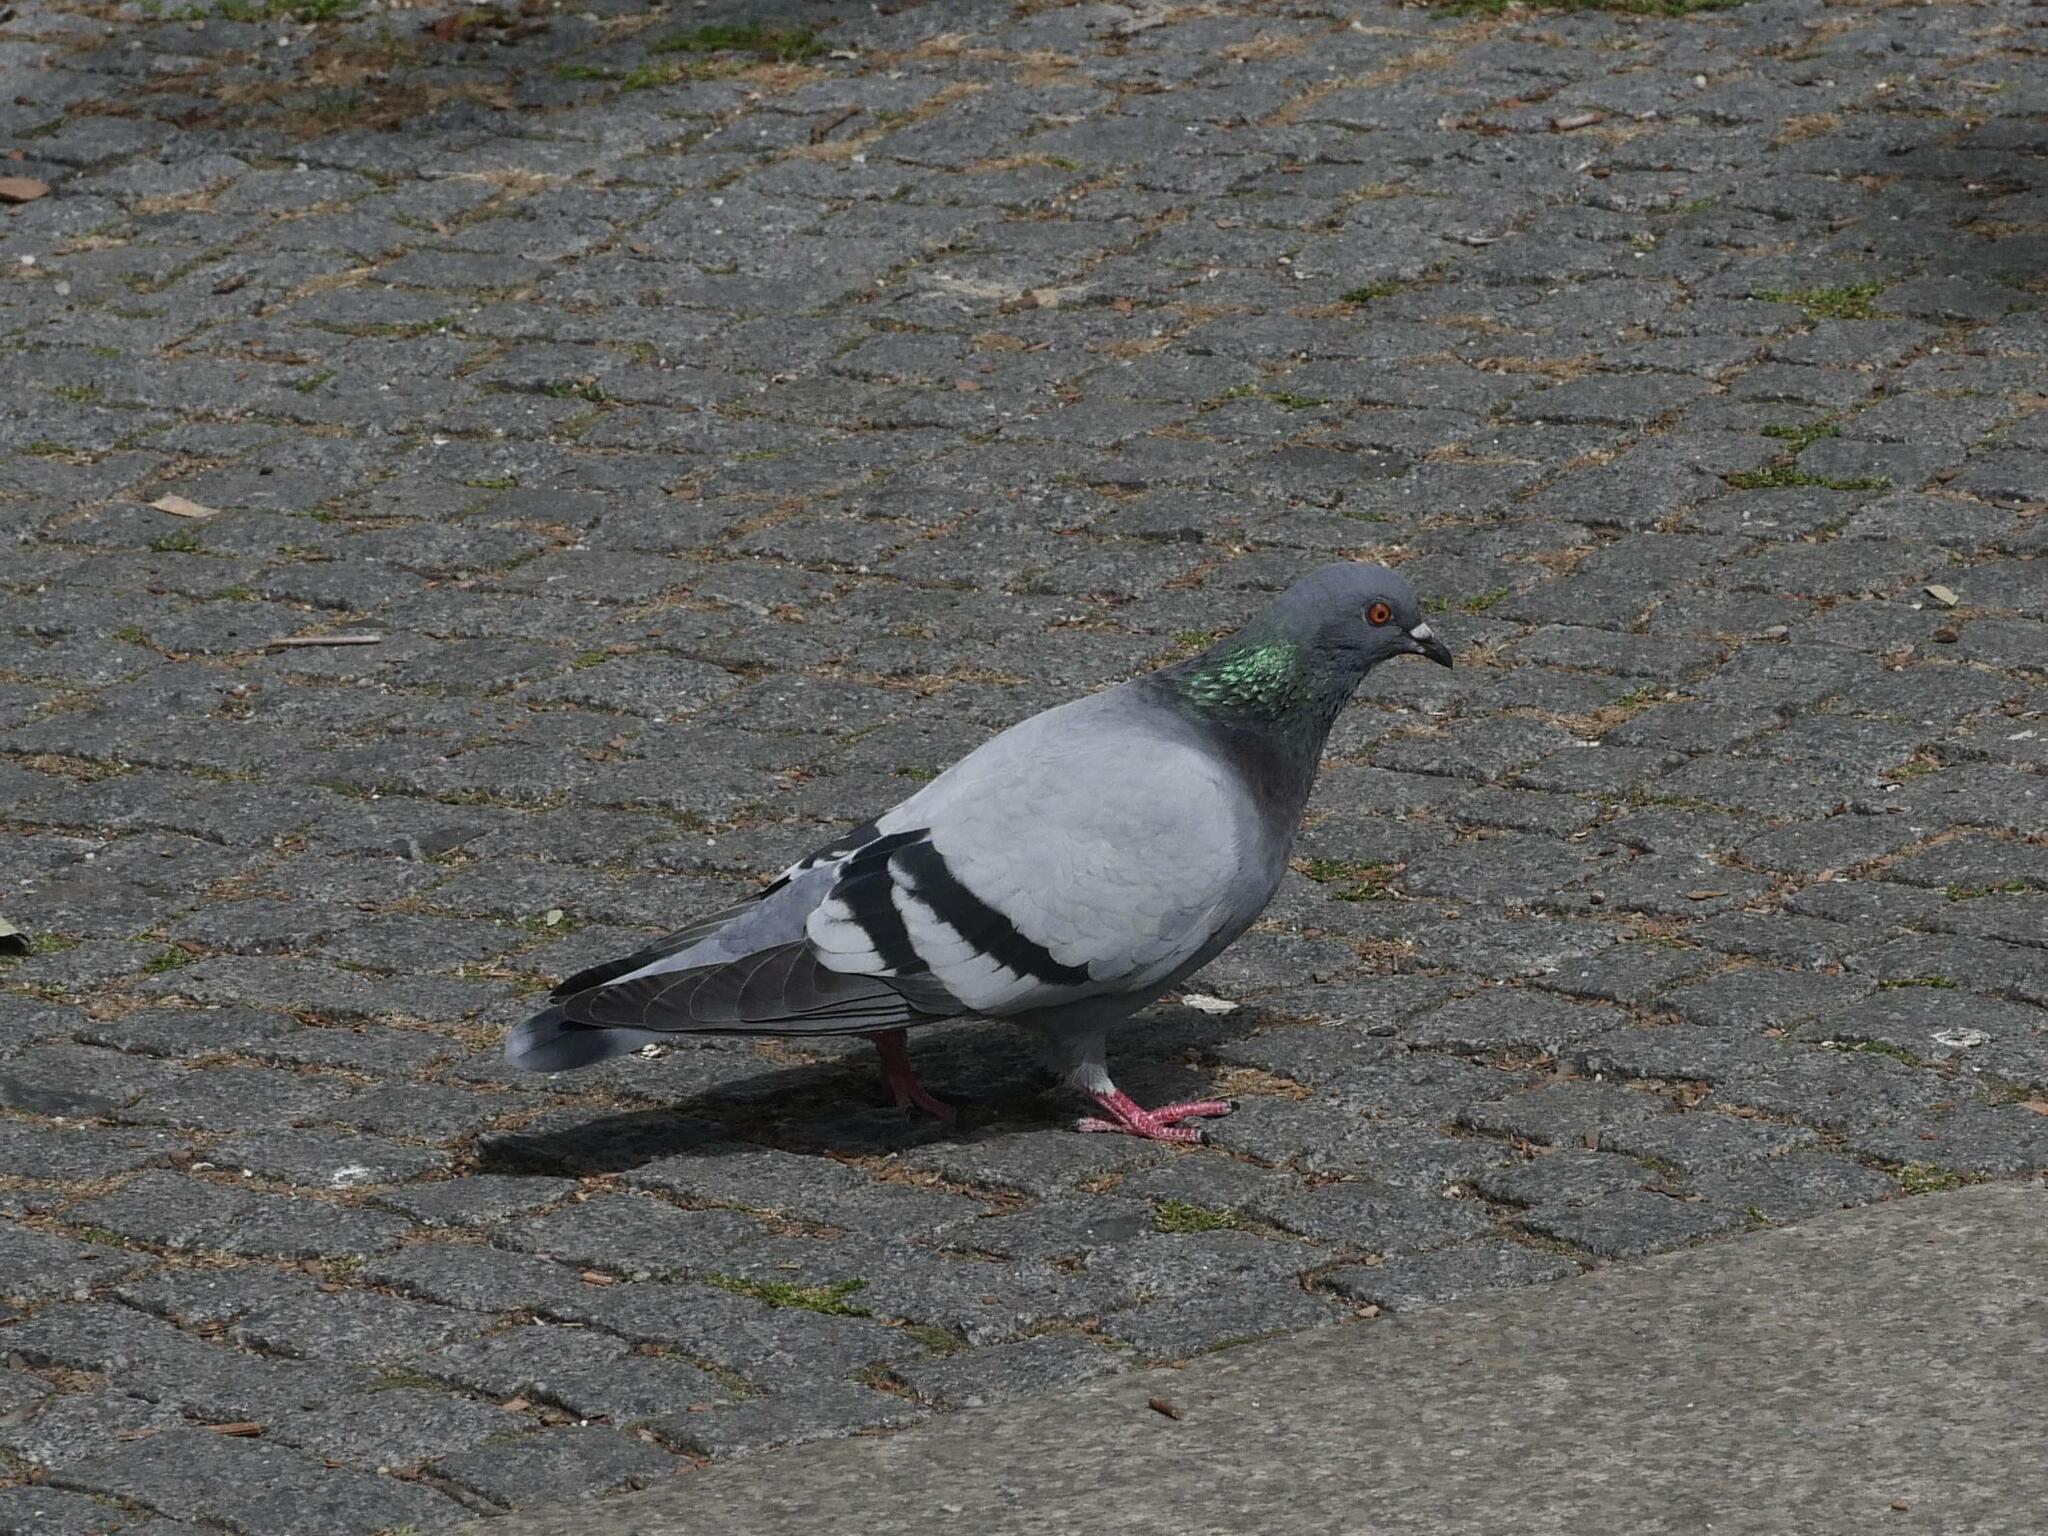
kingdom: Animalia
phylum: Chordata
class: Aves
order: Columbiformes
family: Columbidae
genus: Columba
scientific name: Columba livia
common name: Rock pigeon
